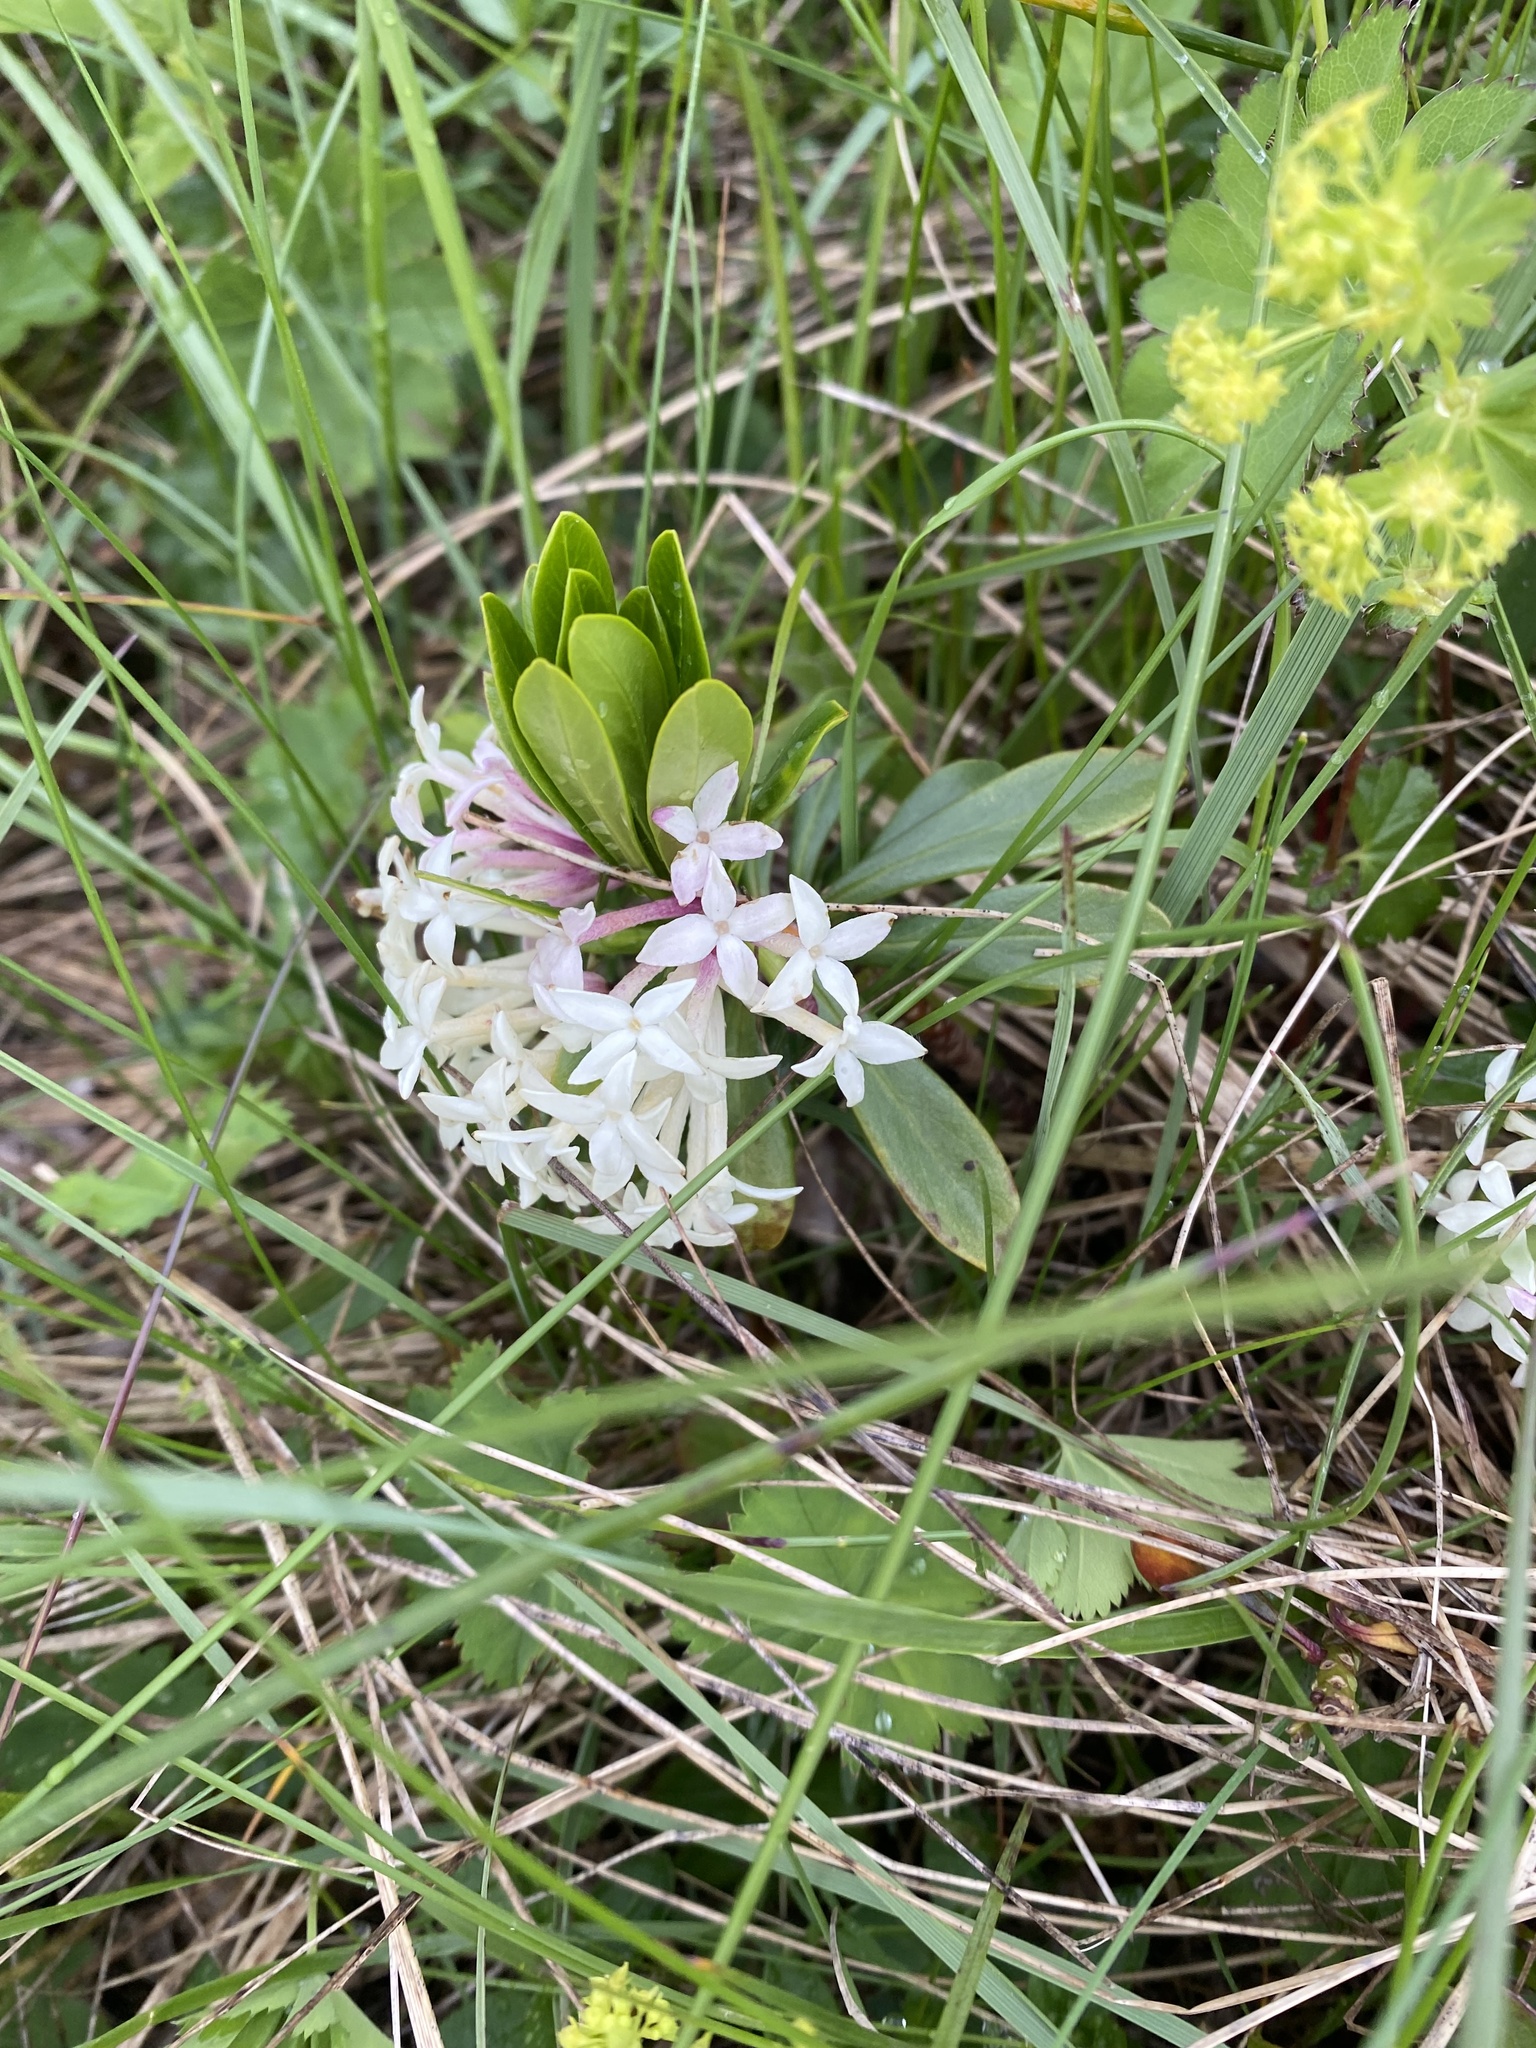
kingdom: Plantae
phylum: Tracheophyta
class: Magnoliopsida
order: Malvales
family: Thymelaeaceae
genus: Daphne
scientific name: Daphne glomerata
